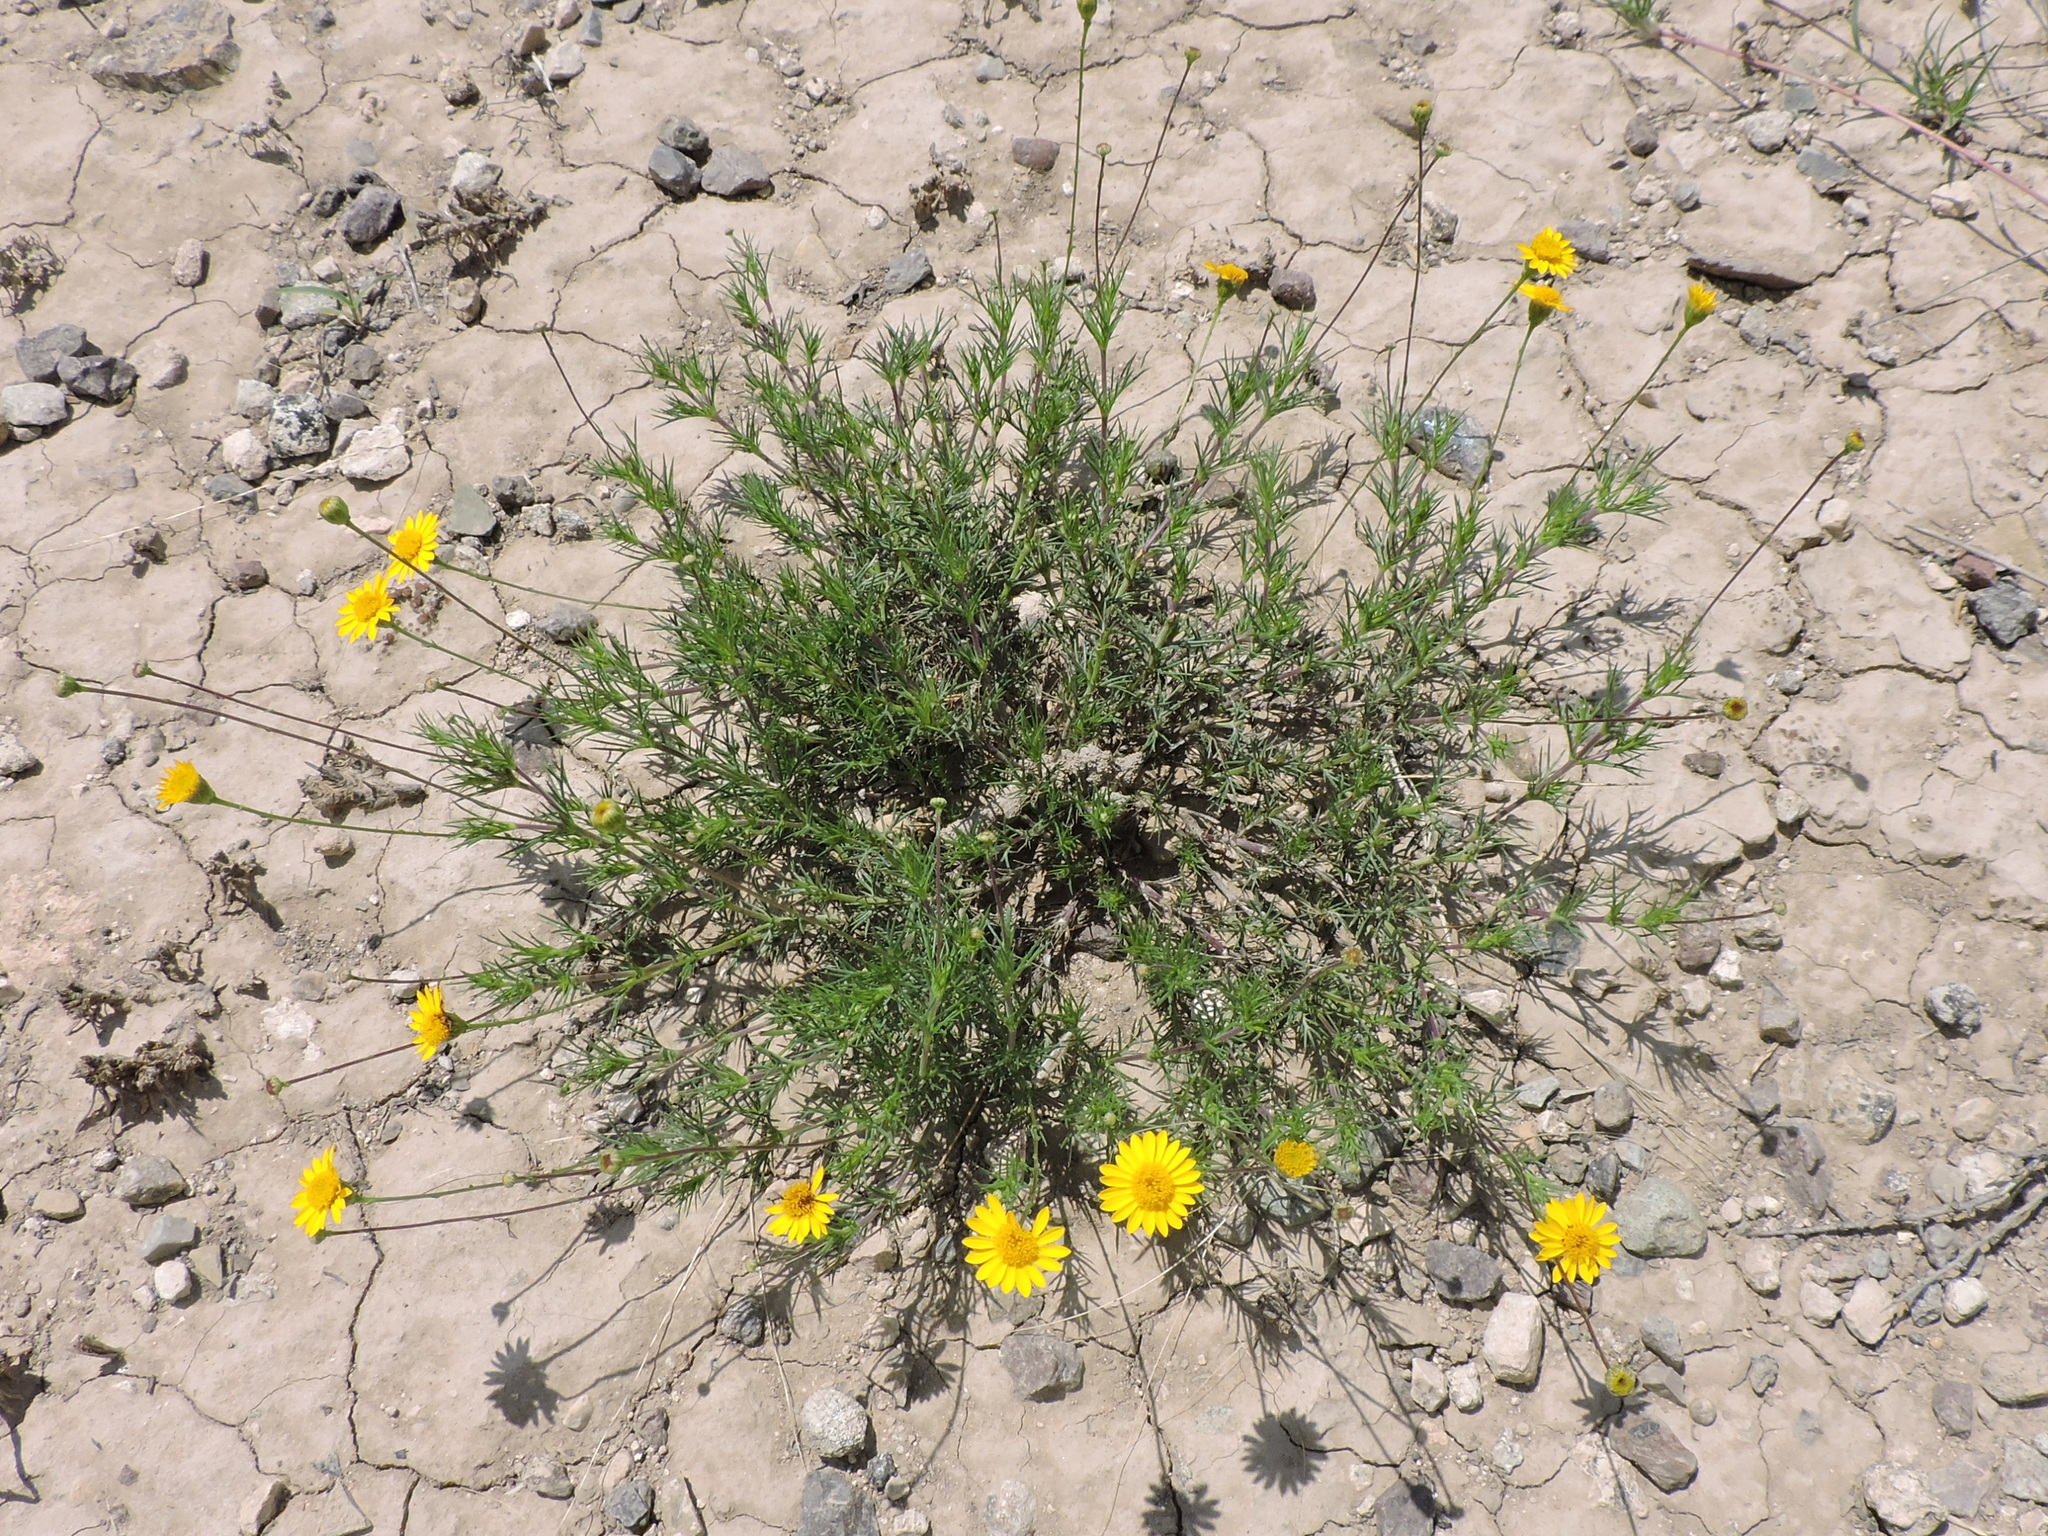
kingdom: Plantae
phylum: Tracheophyta
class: Magnoliopsida
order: Asterales
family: Asteraceae
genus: Thymophylla
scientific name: Thymophylla tenuiloba
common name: Dahlberg's daisy
